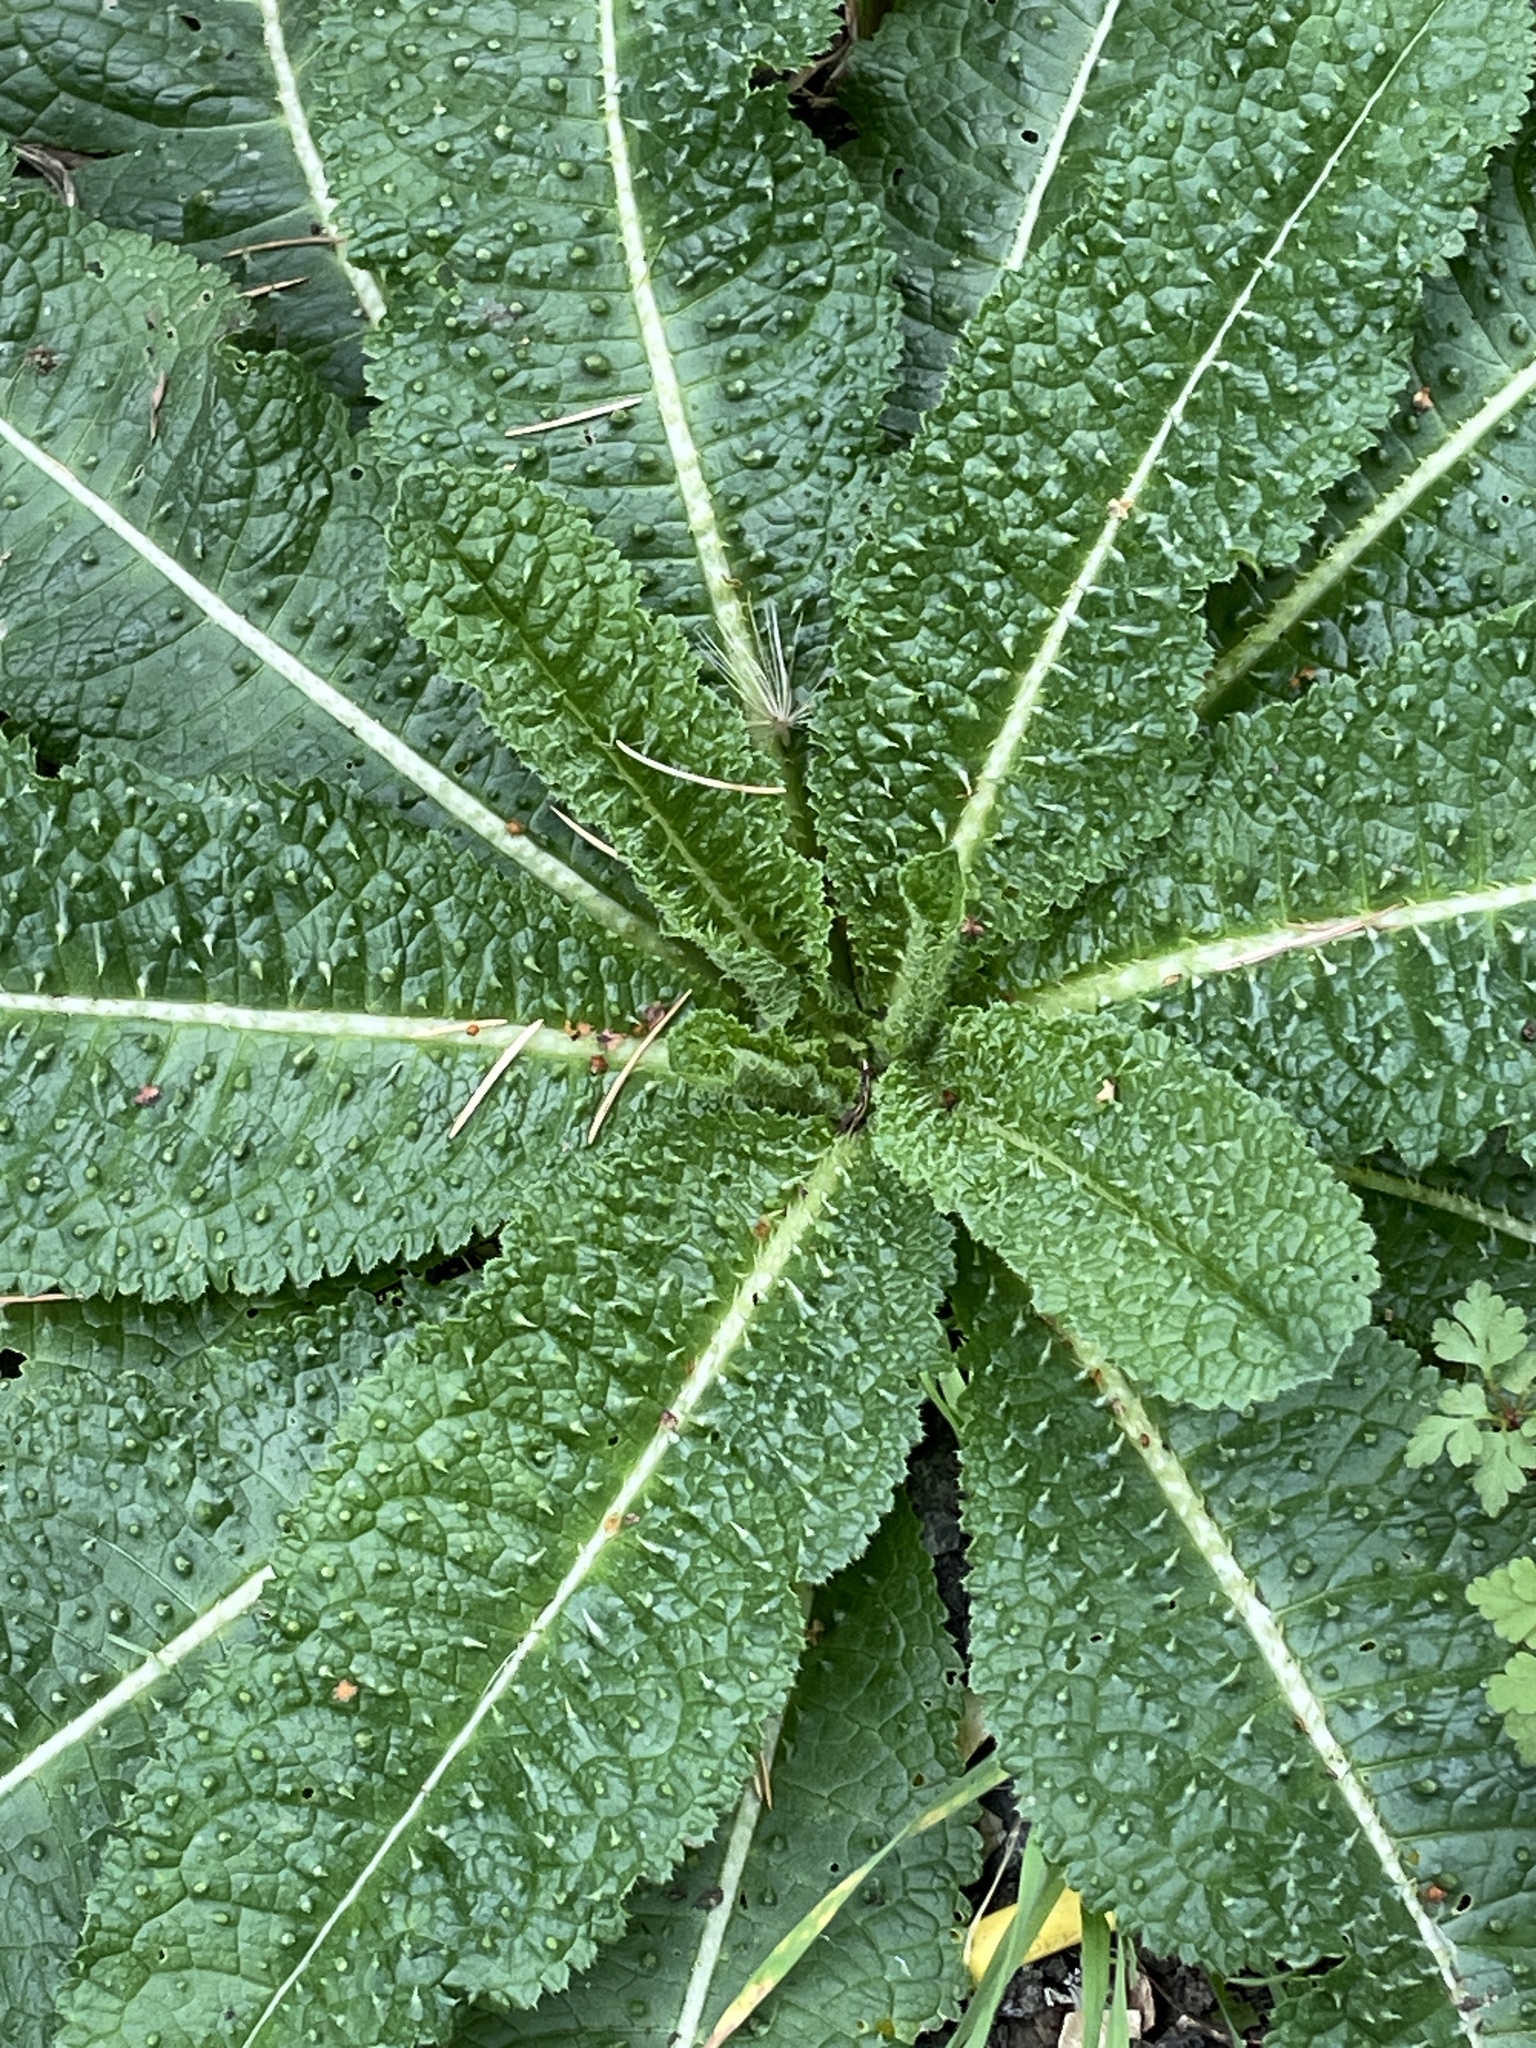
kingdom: Plantae
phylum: Tracheophyta
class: Magnoliopsida
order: Dipsacales
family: Caprifoliaceae
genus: Dipsacus
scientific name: Dipsacus fullonum
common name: Teasel
